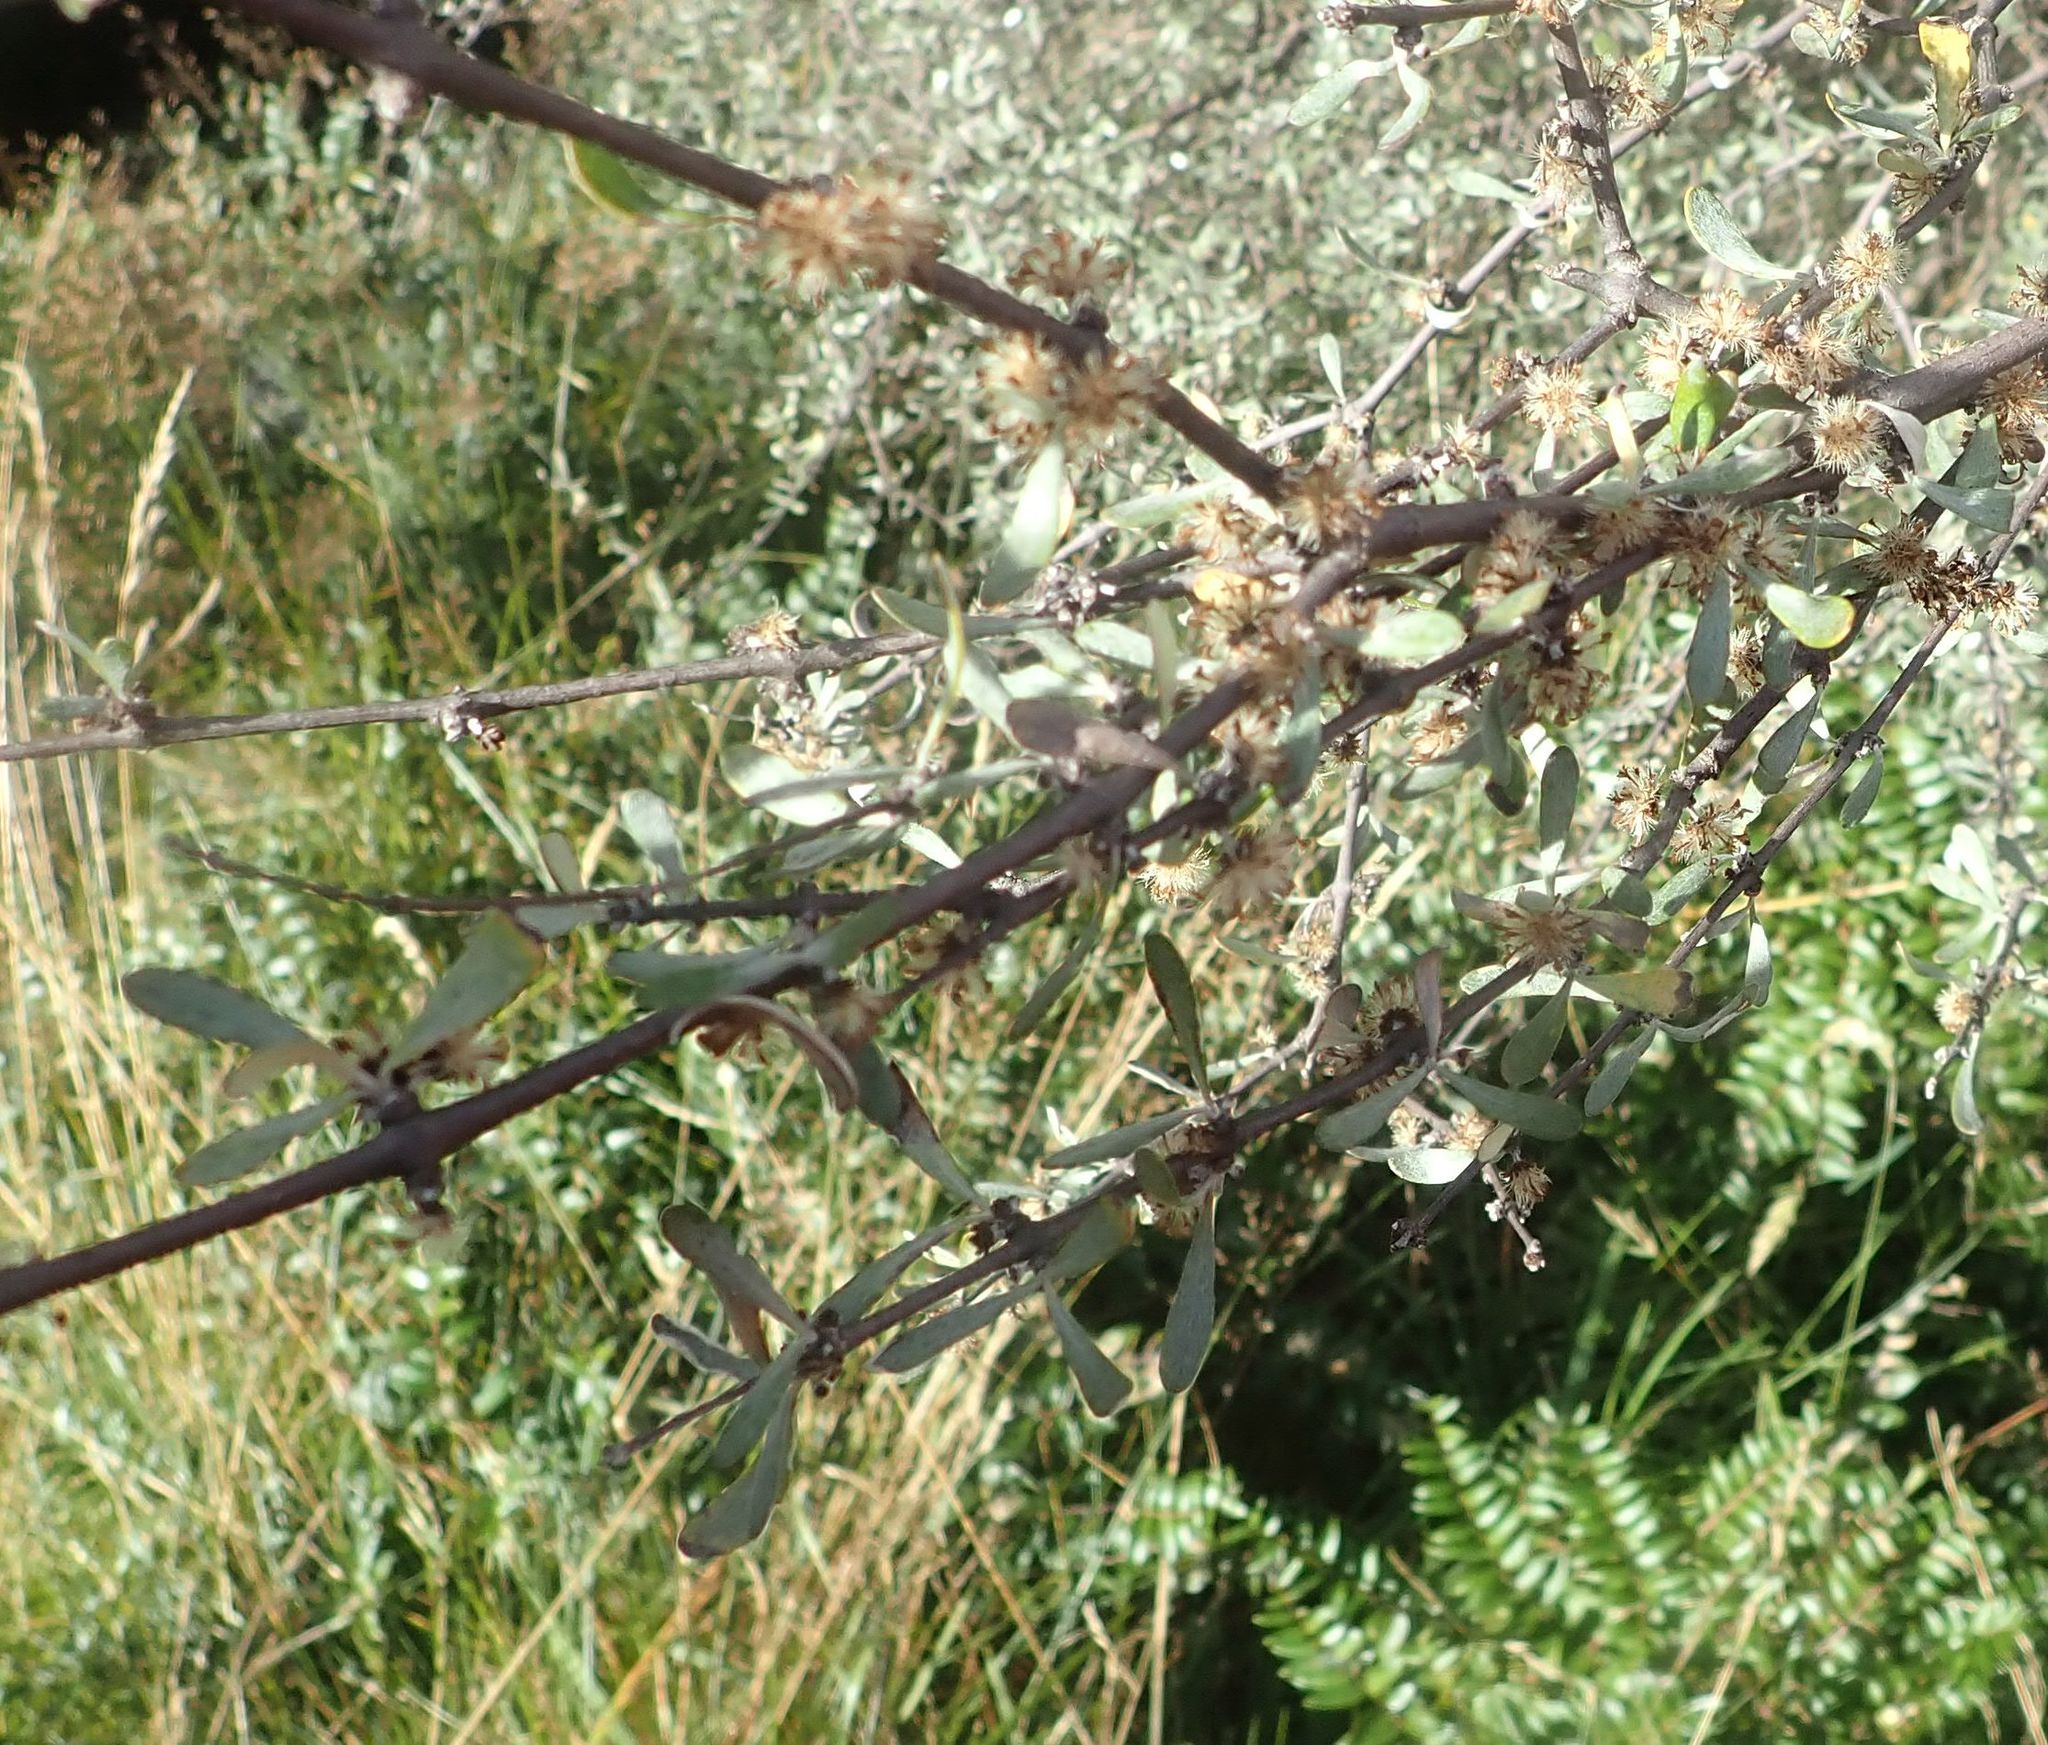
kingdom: Plantae
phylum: Tracheophyta
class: Magnoliopsida
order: Asterales
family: Asteraceae
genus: Olearia
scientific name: Olearia odorata
